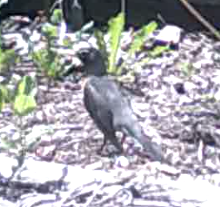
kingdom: Animalia
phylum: Chordata
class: Aves
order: Passeriformes
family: Turdidae
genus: Turdus
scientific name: Turdus migratorius
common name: American robin
